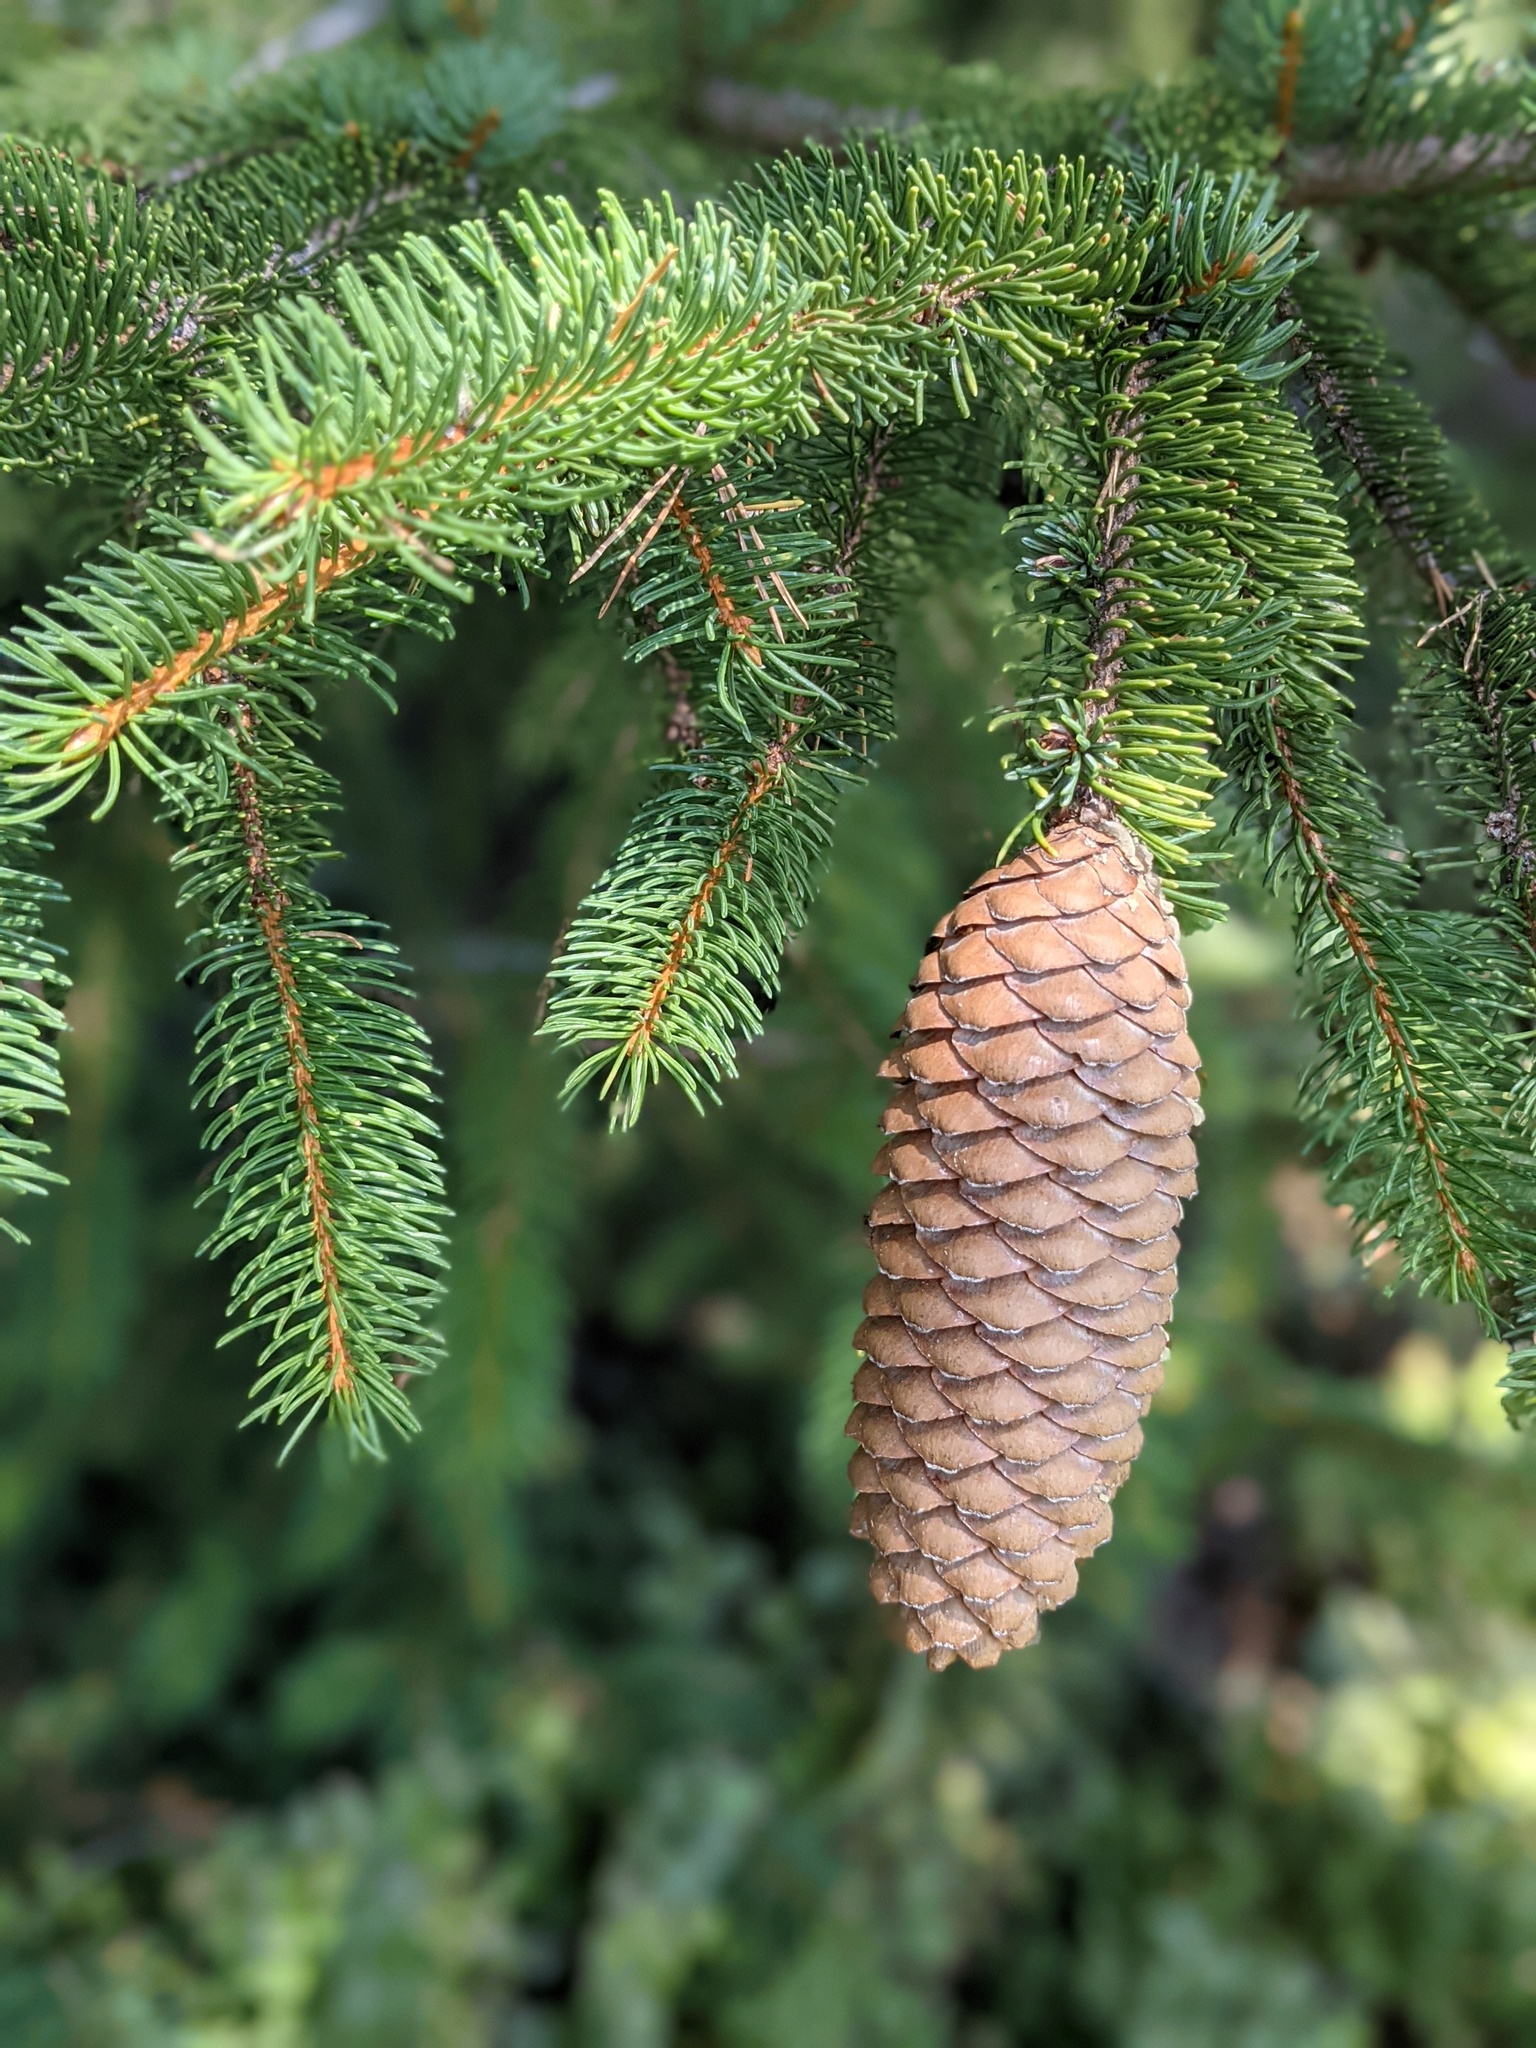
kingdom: Plantae
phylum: Tracheophyta
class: Pinopsida
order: Pinales
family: Pinaceae
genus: Picea
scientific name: Picea abies
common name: Norway spruce
